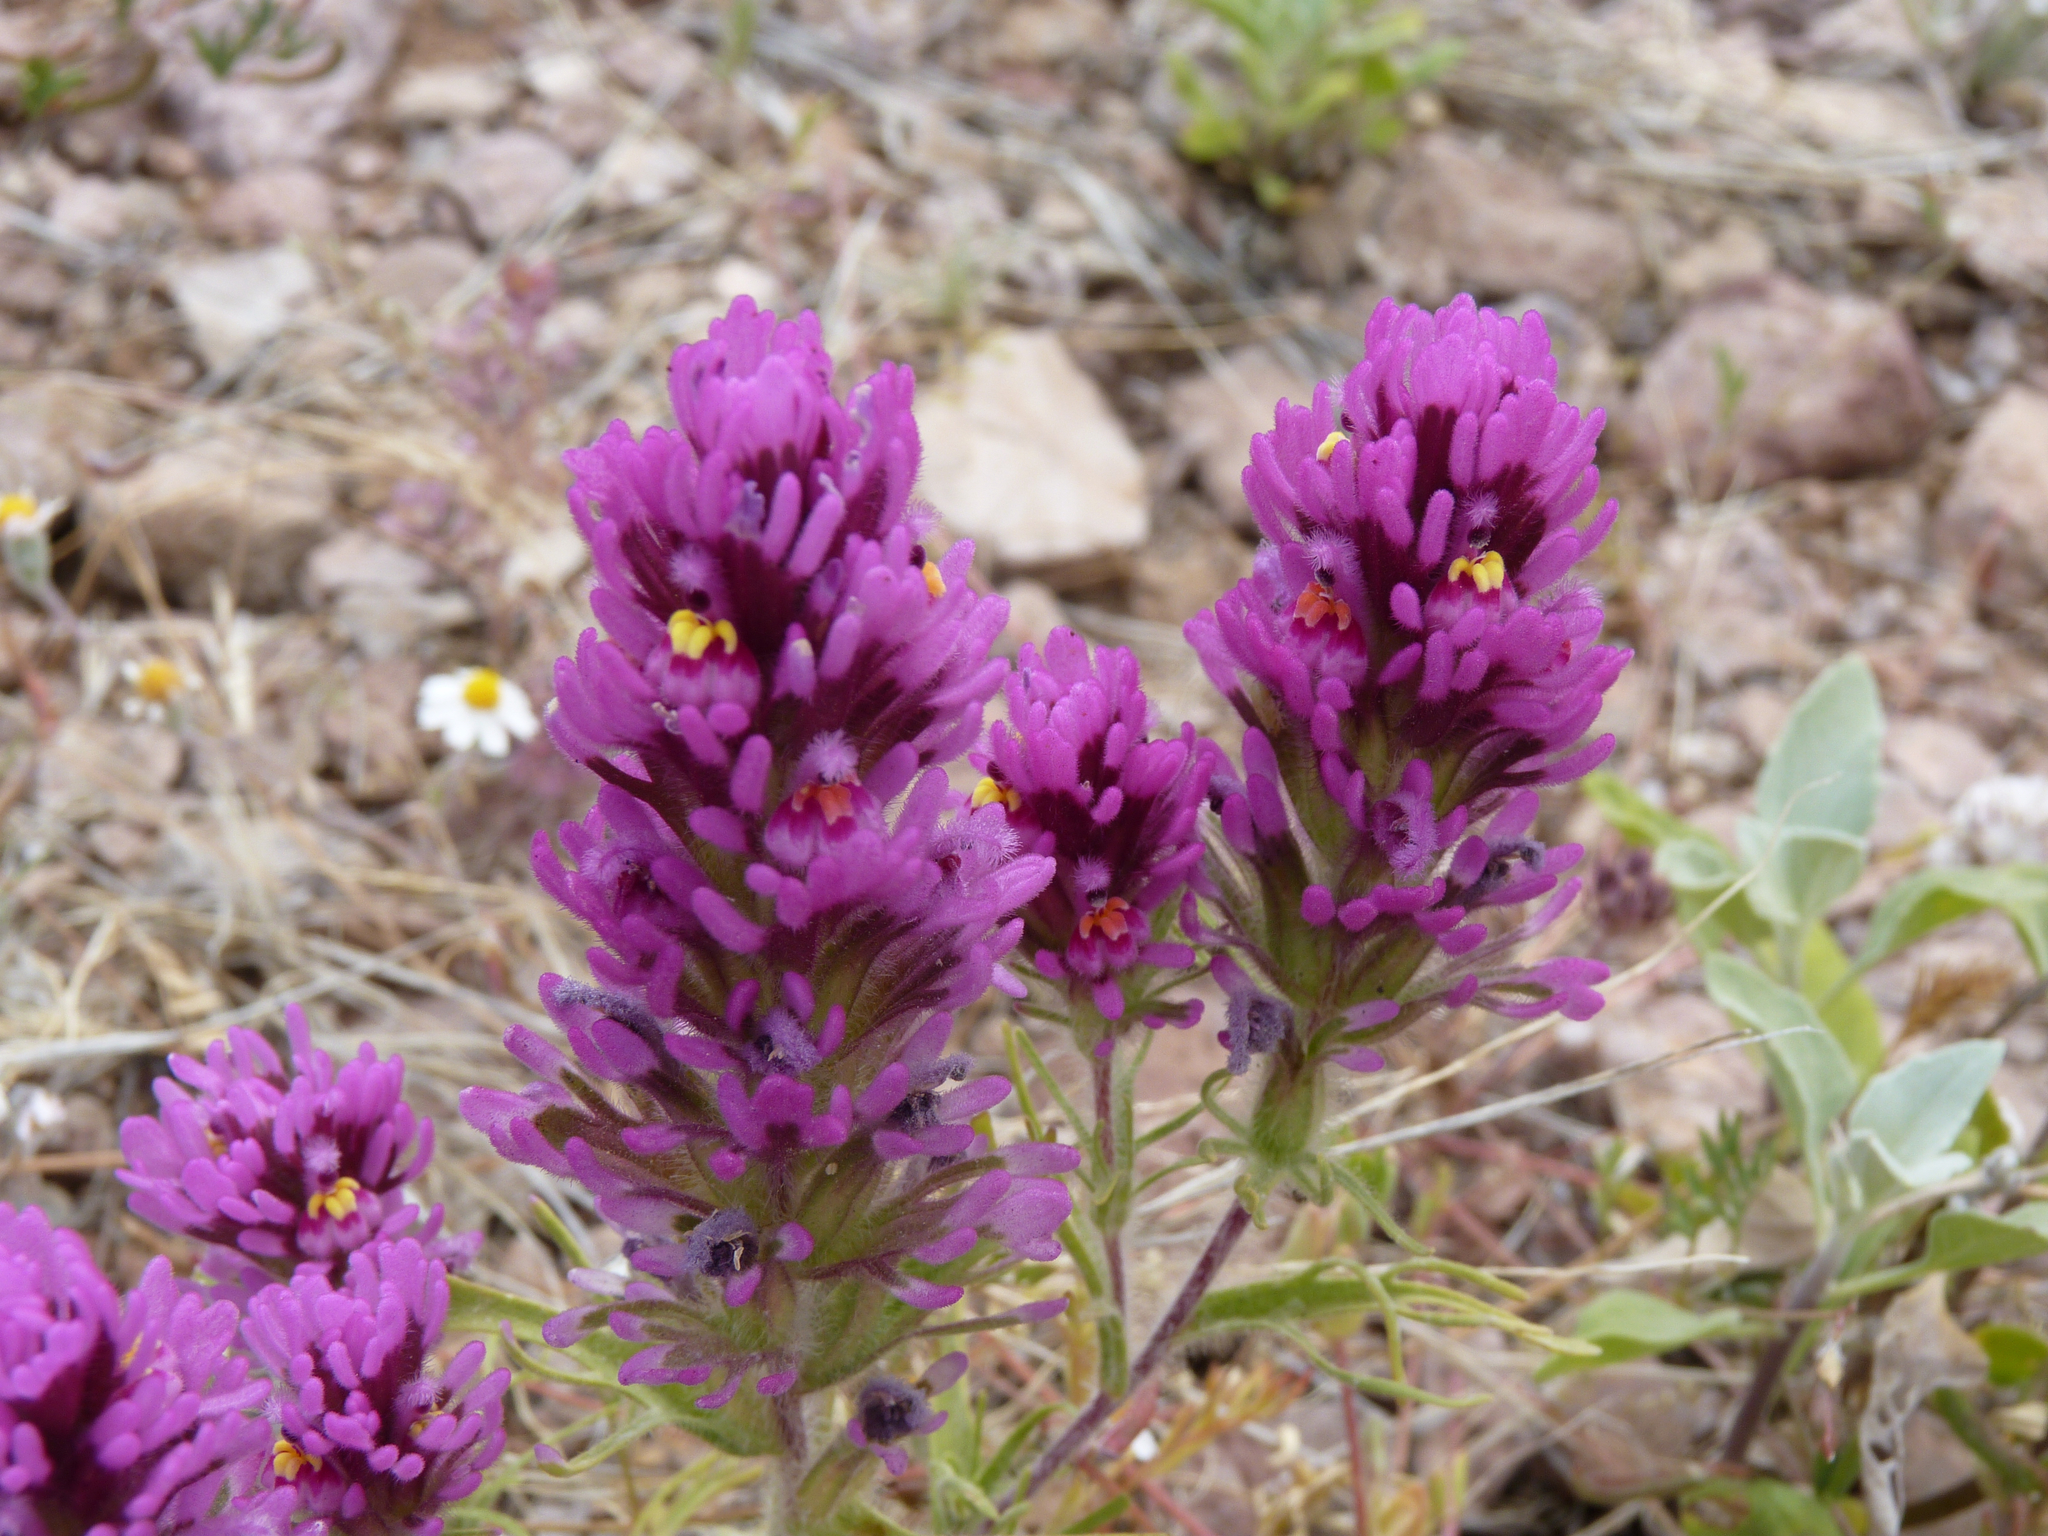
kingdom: Plantae
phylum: Tracheophyta
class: Magnoliopsida
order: Lamiales
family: Orobanchaceae
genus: Castilleja
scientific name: Castilleja exserta
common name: Purple owl-clover
